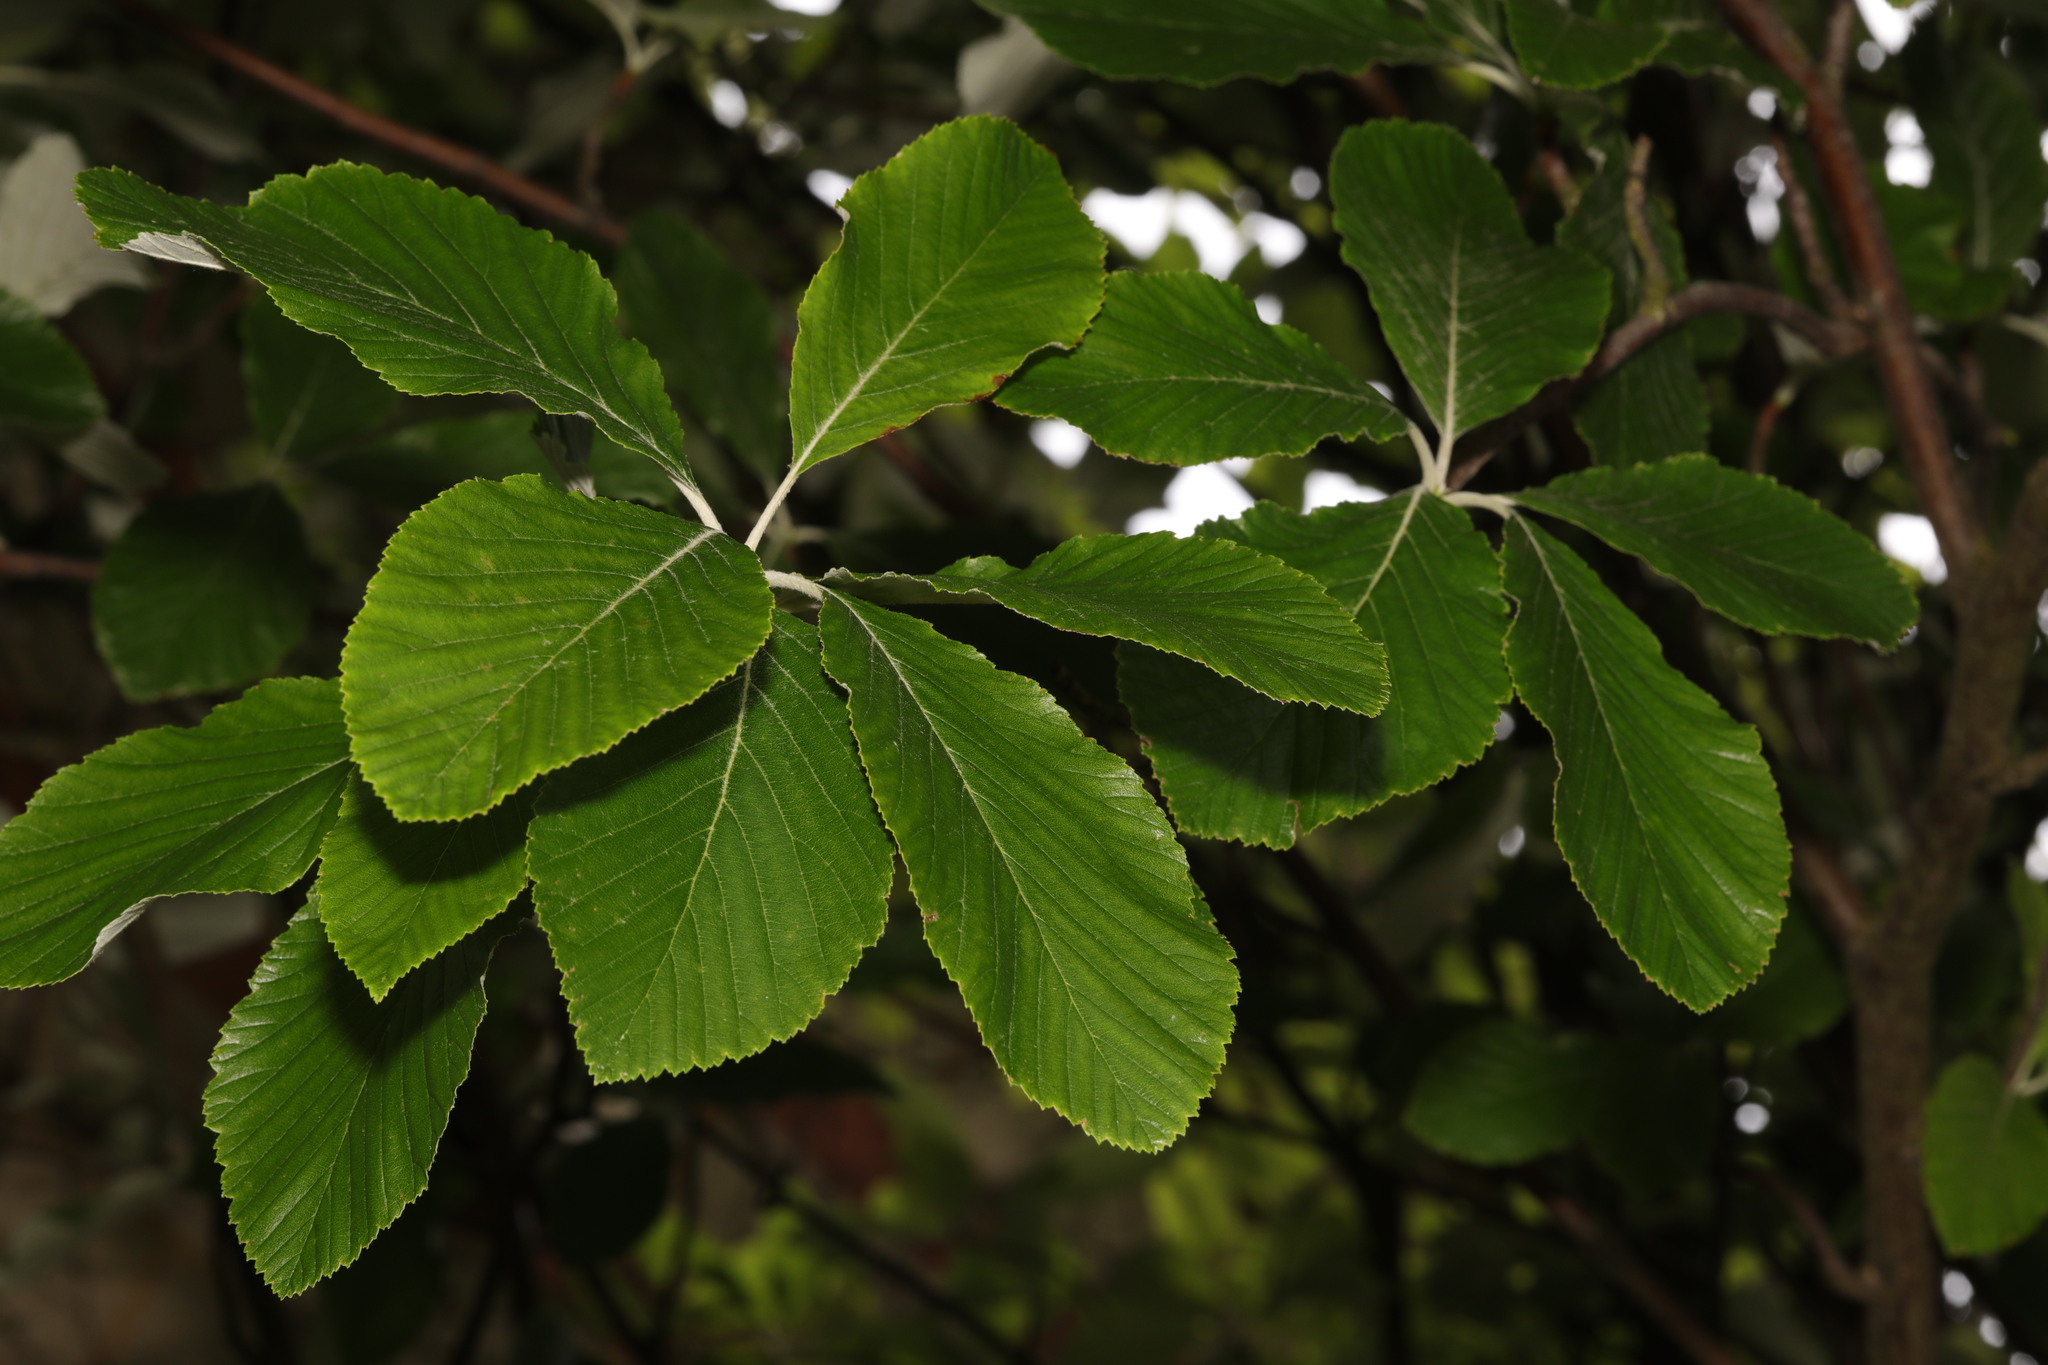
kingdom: Plantae
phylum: Tracheophyta
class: Magnoliopsida
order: Rosales
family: Rosaceae
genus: Aria
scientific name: Aria edulis
